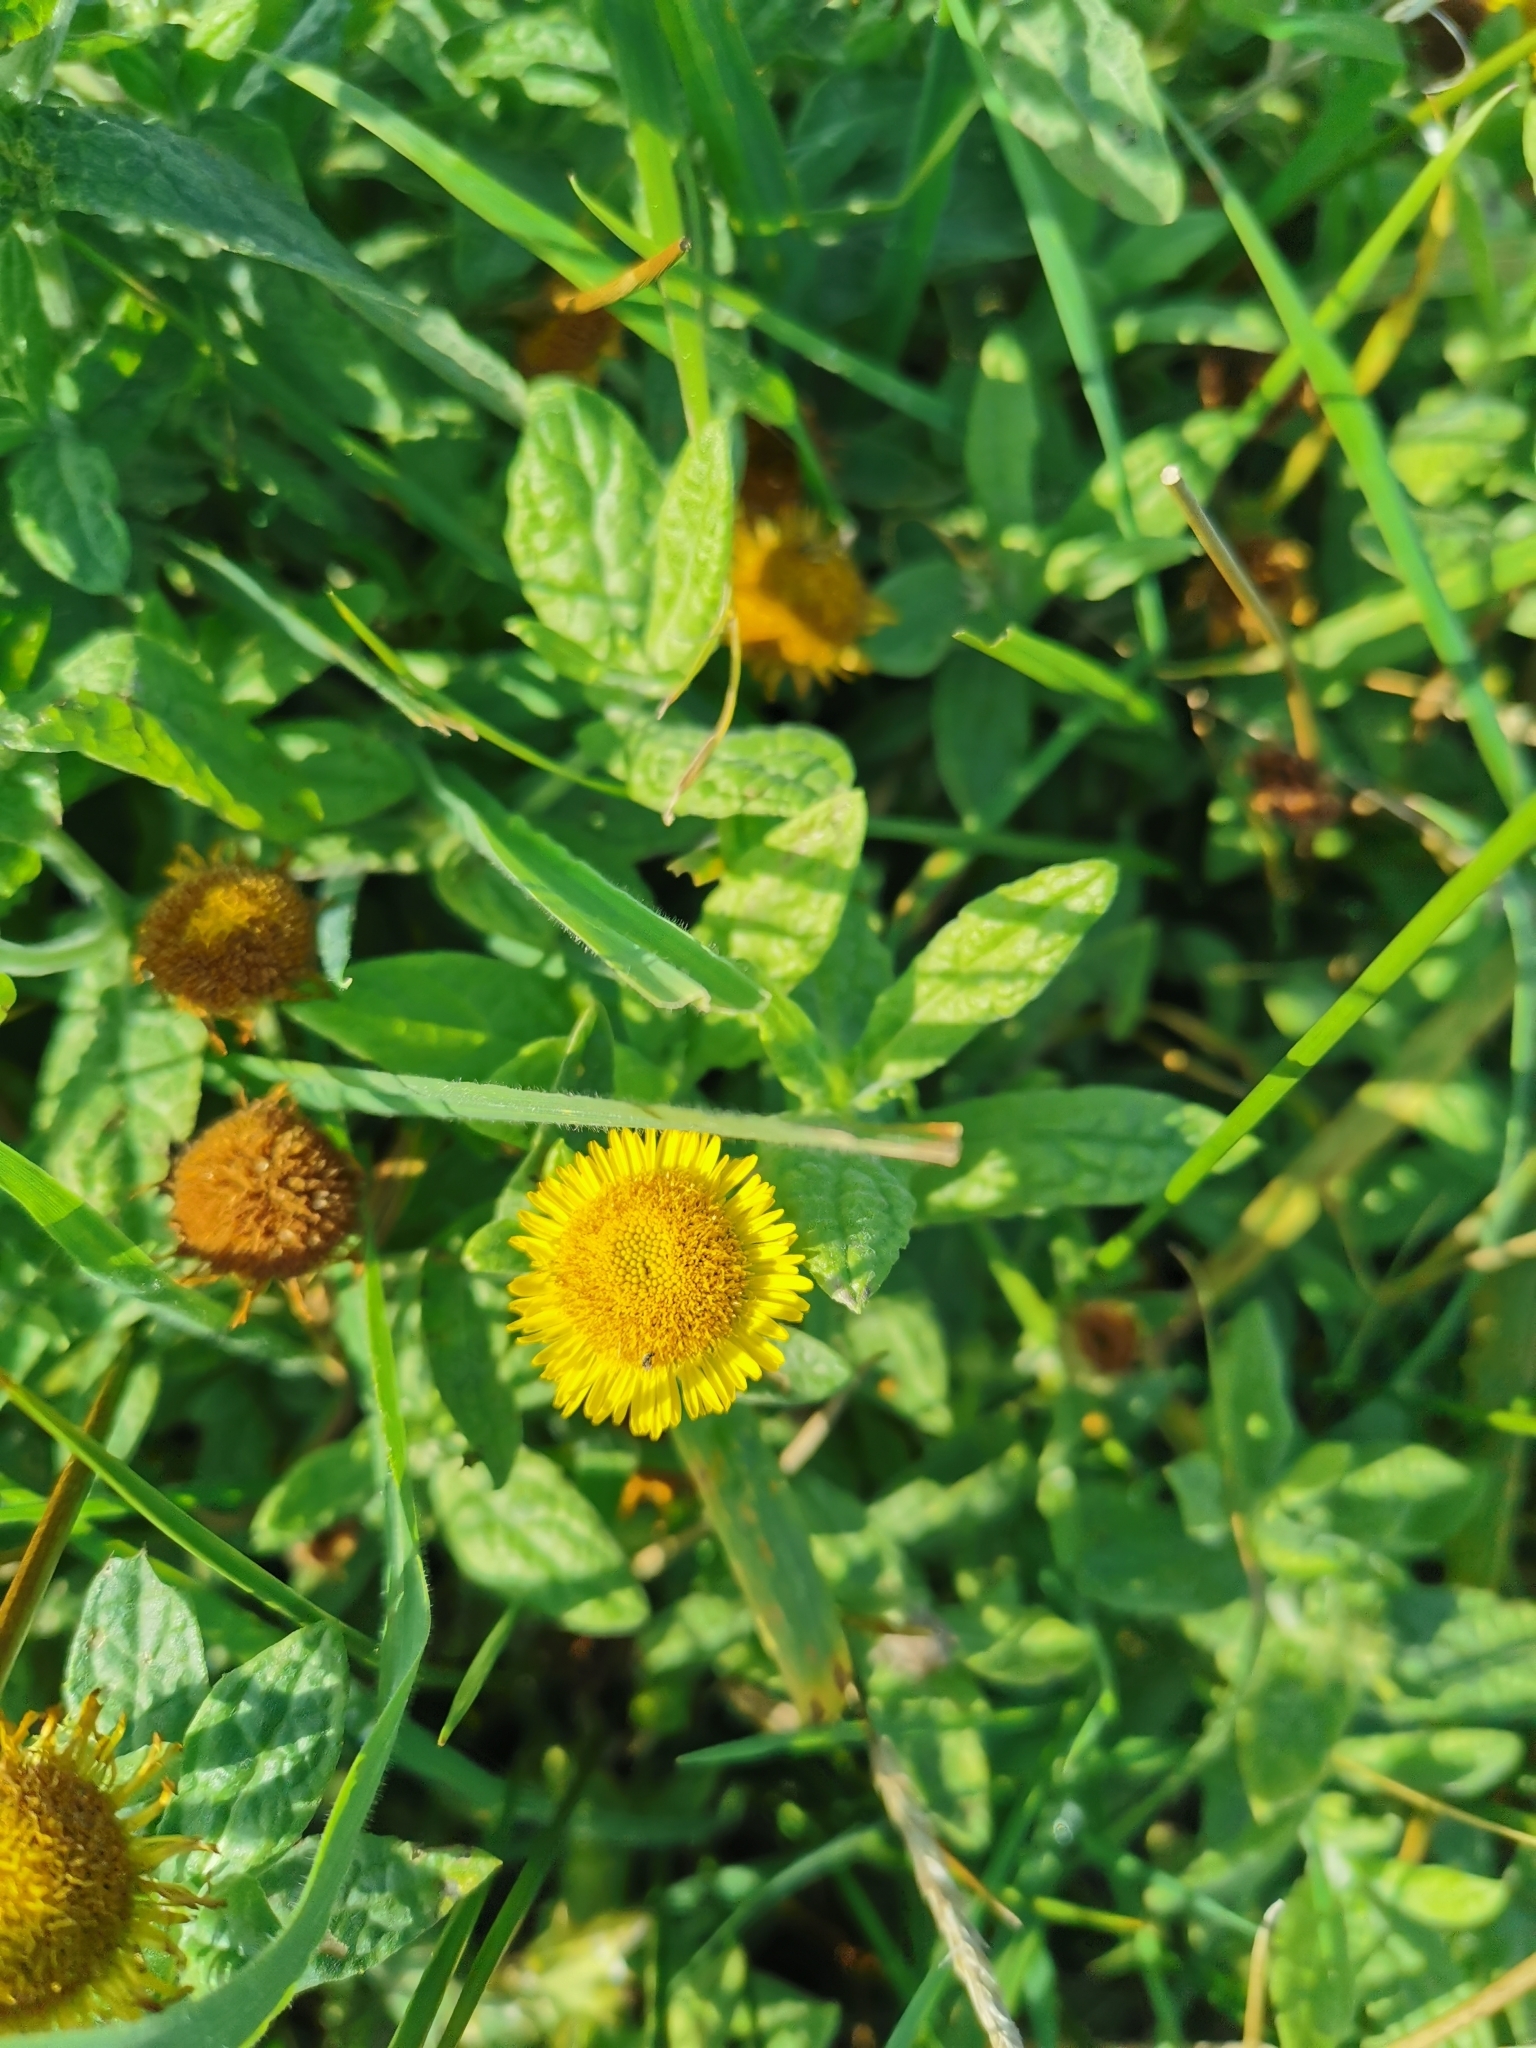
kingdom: Plantae
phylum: Tracheophyta
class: Magnoliopsida
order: Asterales
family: Asteraceae
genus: Pulicaria
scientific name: Pulicaria dysenterica
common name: Common fleabane
